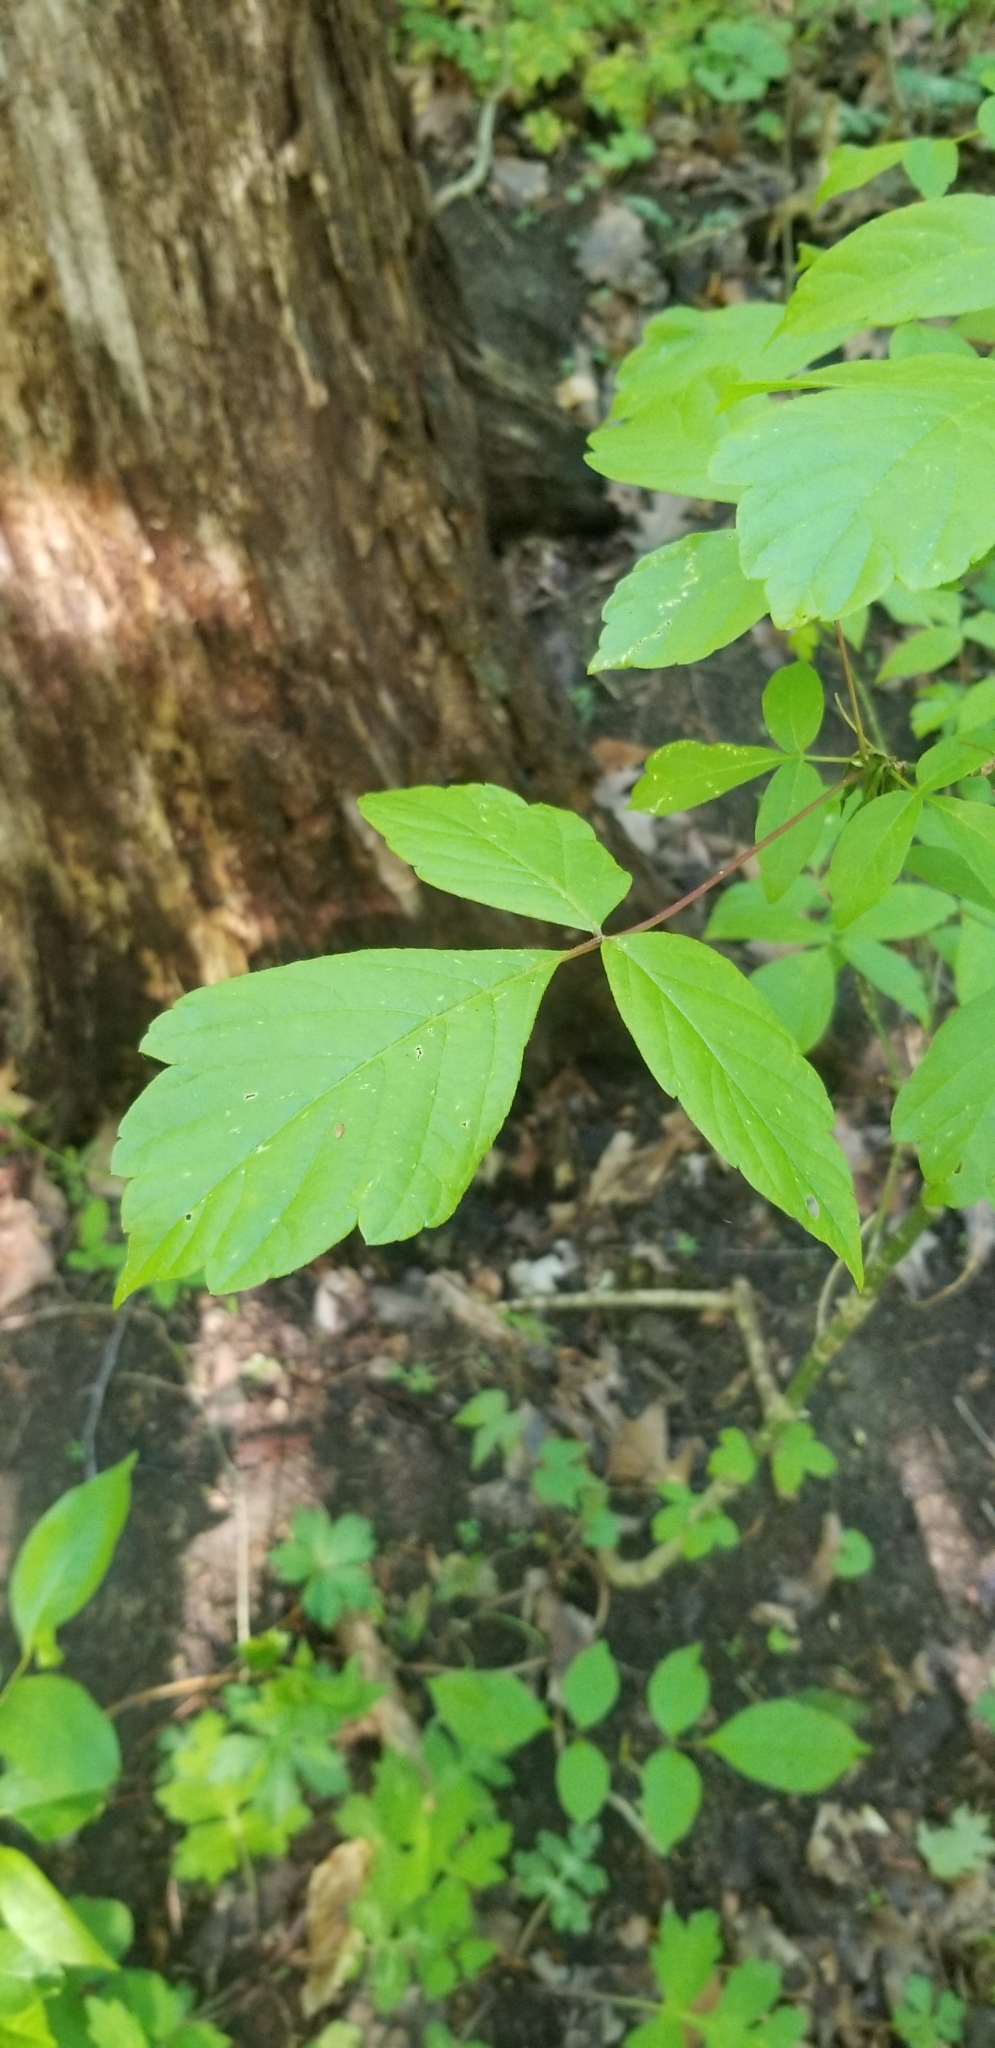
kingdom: Plantae
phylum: Tracheophyta
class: Magnoliopsida
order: Sapindales
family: Sapindaceae
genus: Acer
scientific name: Acer negundo
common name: Ashleaf maple
